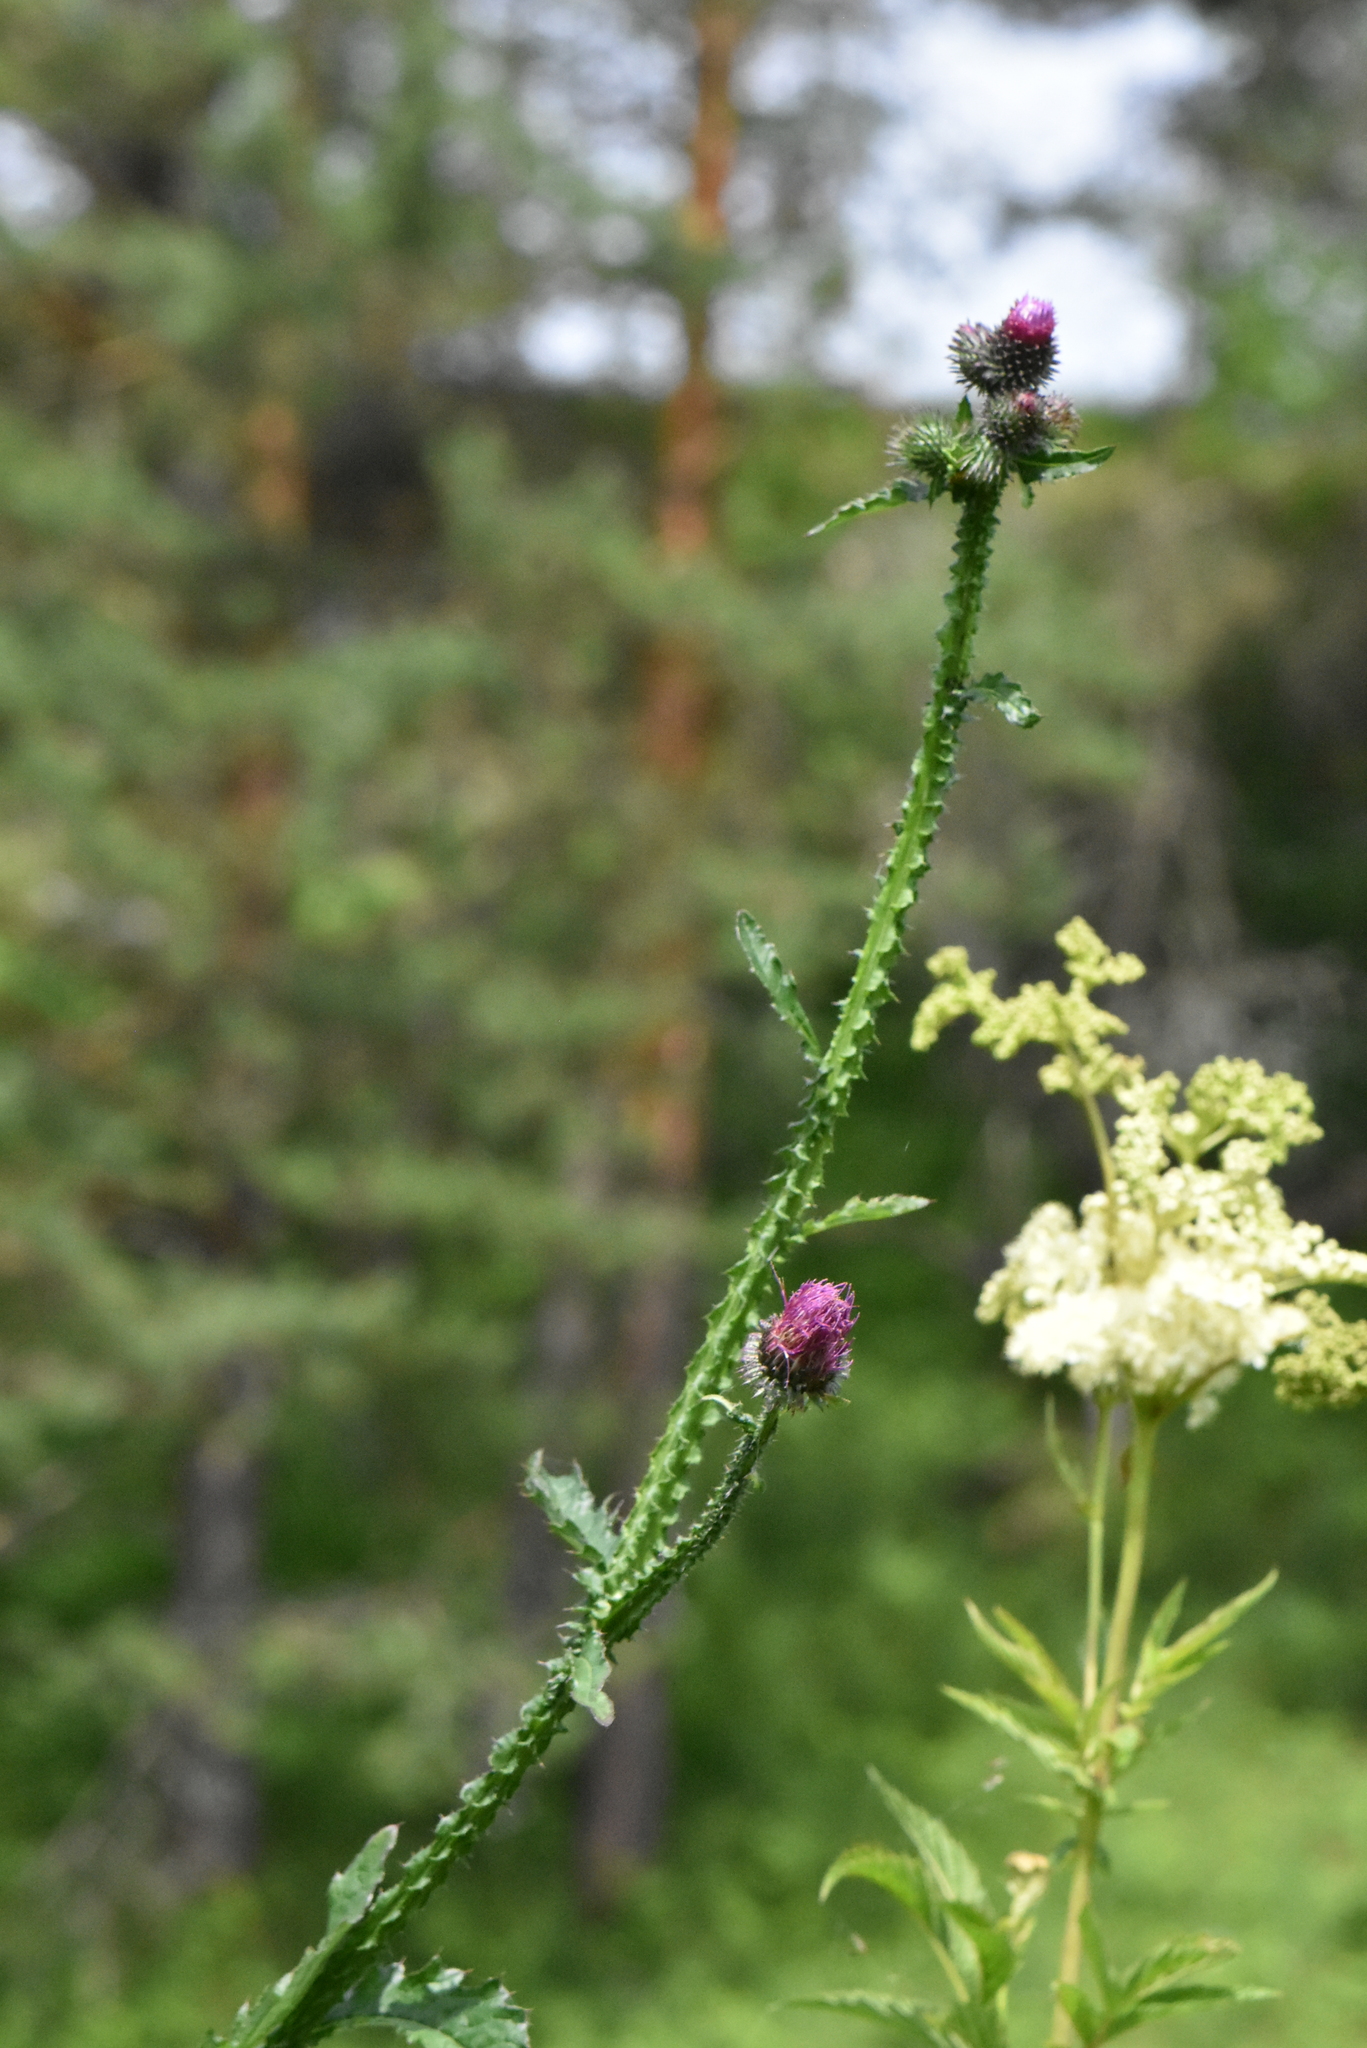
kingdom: Plantae
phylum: Tracheophyta
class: Magnoliopsida
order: Asterales
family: Asteraceae
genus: Carduus
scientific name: Carduus crispus
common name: Welted thistle
